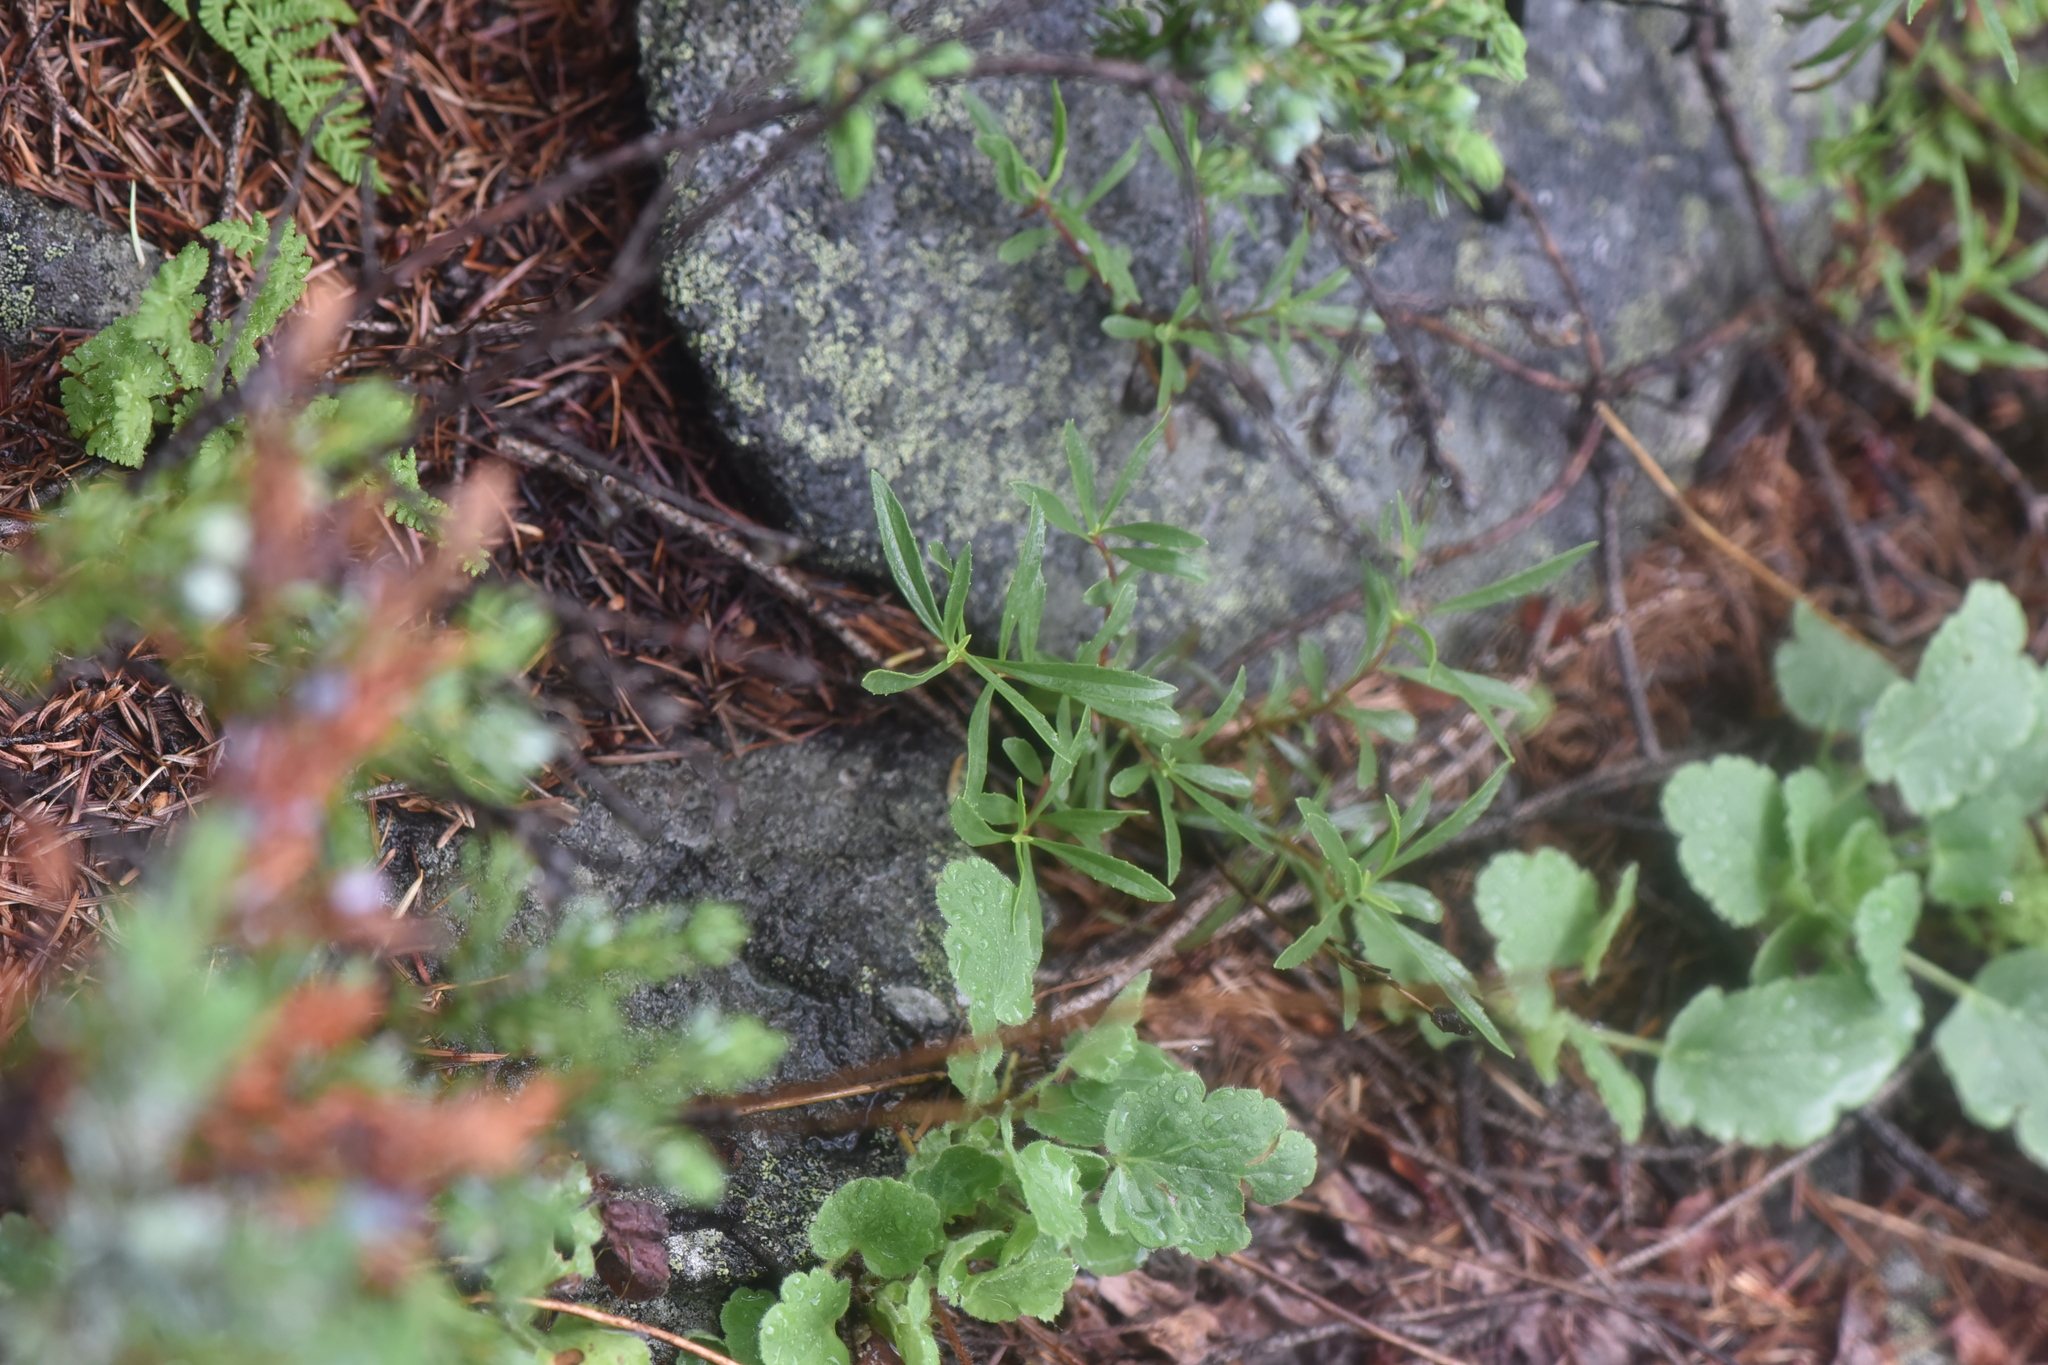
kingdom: Plantae
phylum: Tracheophyta
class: Magnoliopsida
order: Lamiales
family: Plantaginaceae
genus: Penstemon
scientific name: Penstemon fruticosus
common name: Bush penstemon
